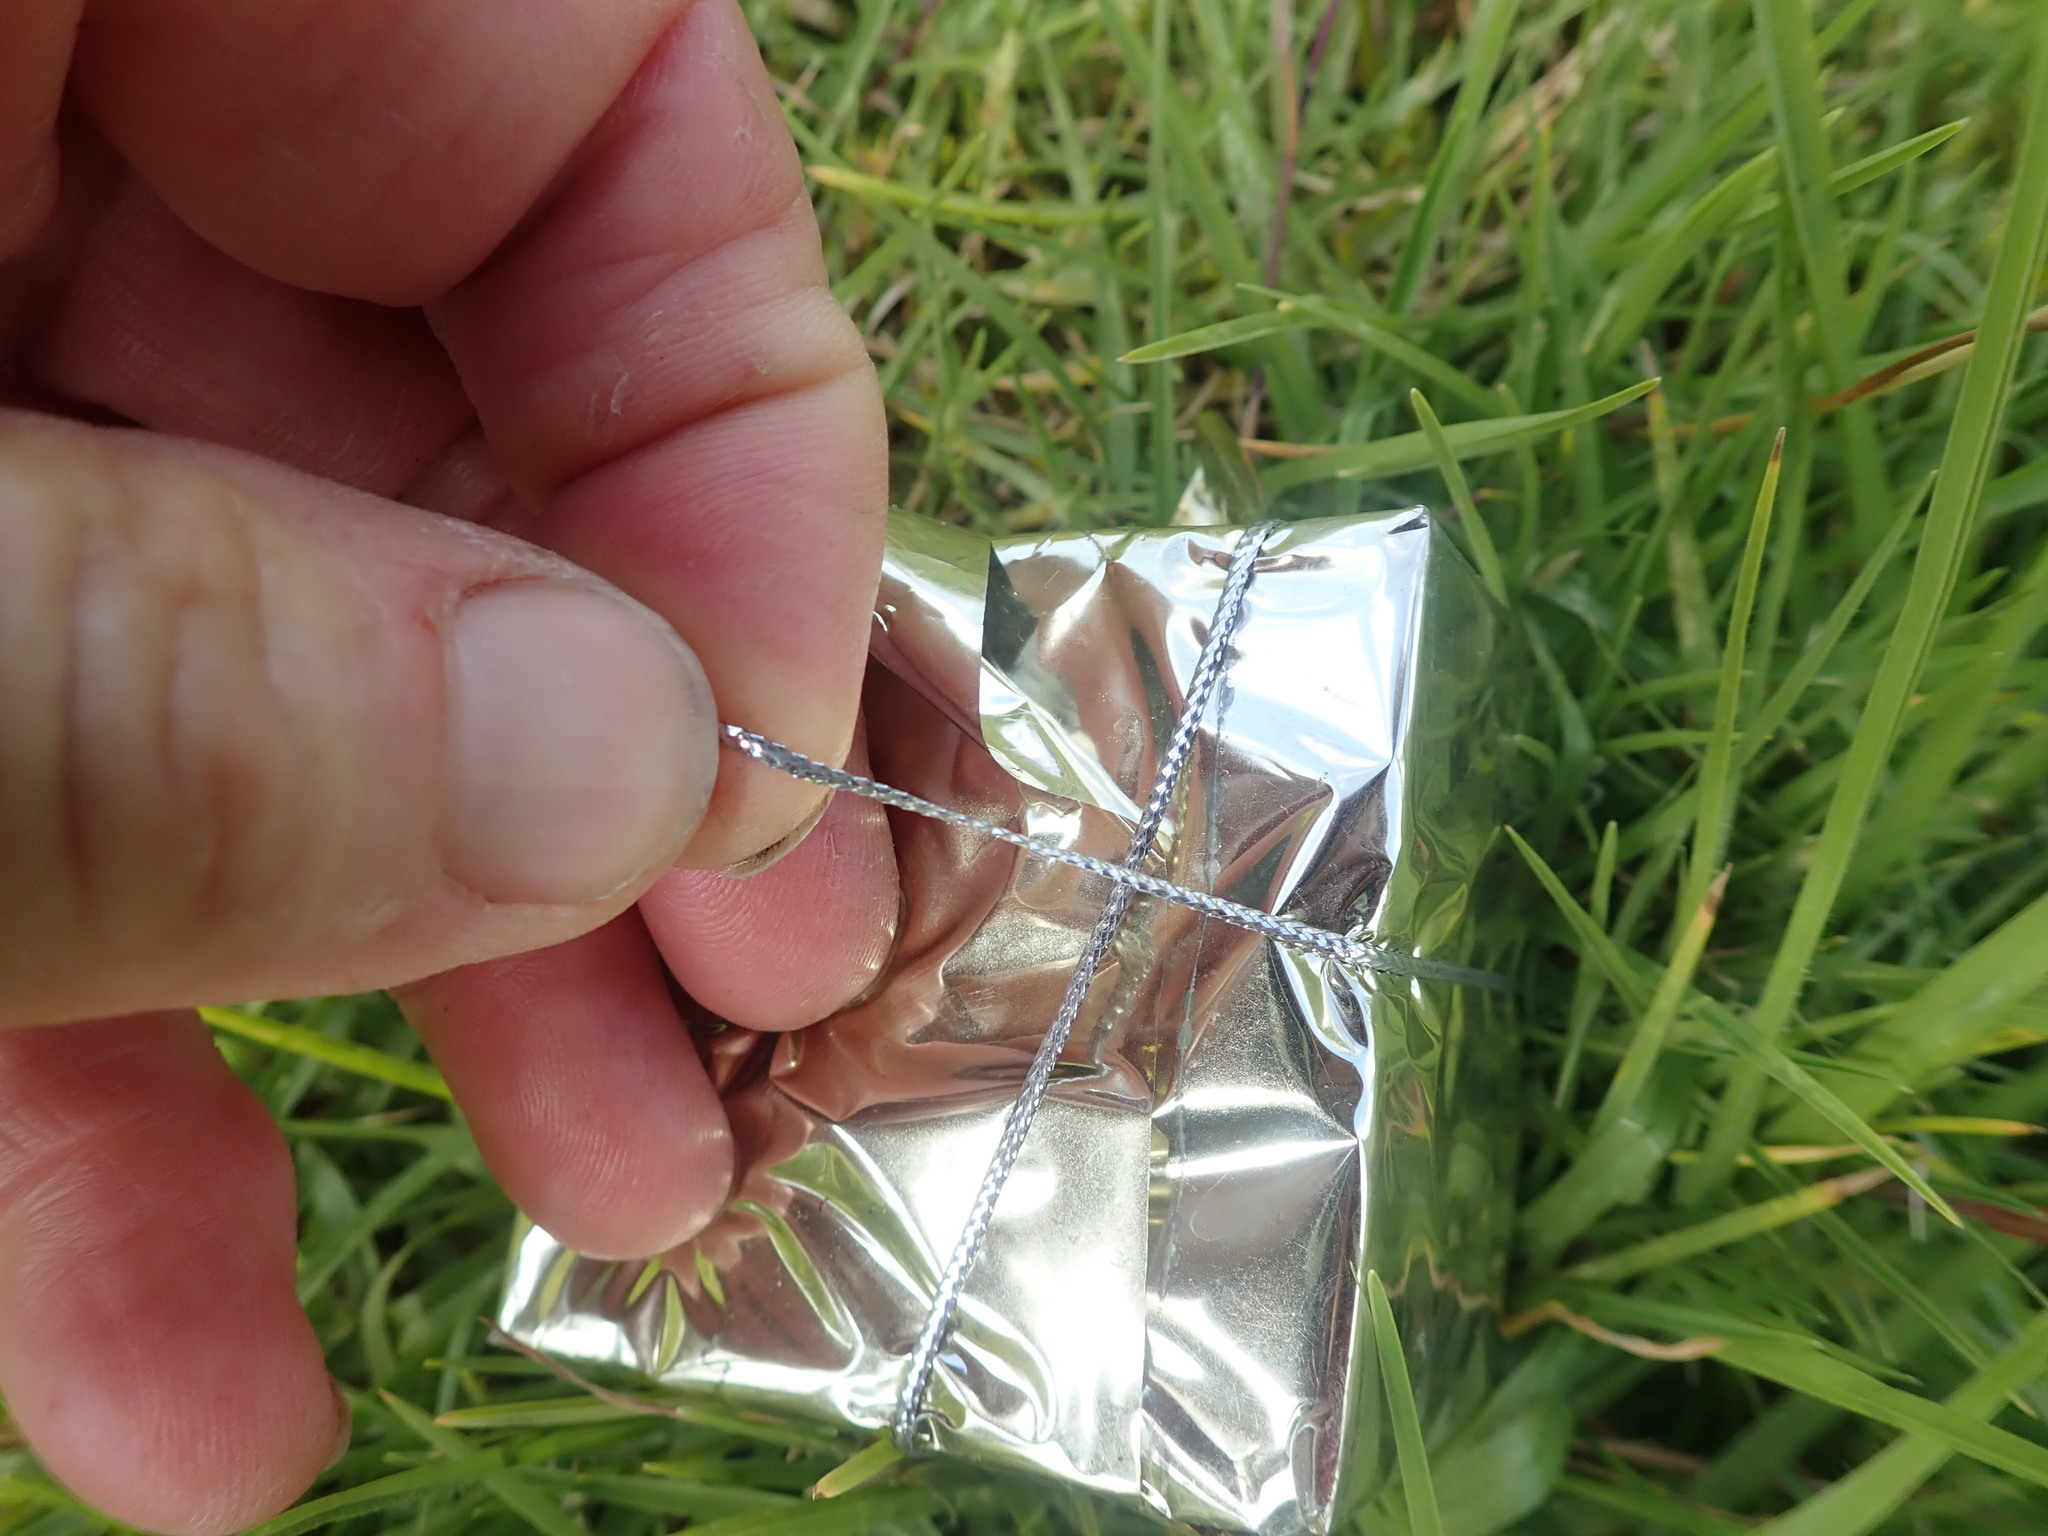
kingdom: Plantae
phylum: Tracheophyta
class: Liliopsida
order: Poales
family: Poaceae
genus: Agrostis
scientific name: Agrostis stolonifera
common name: Creeping bentgrass
